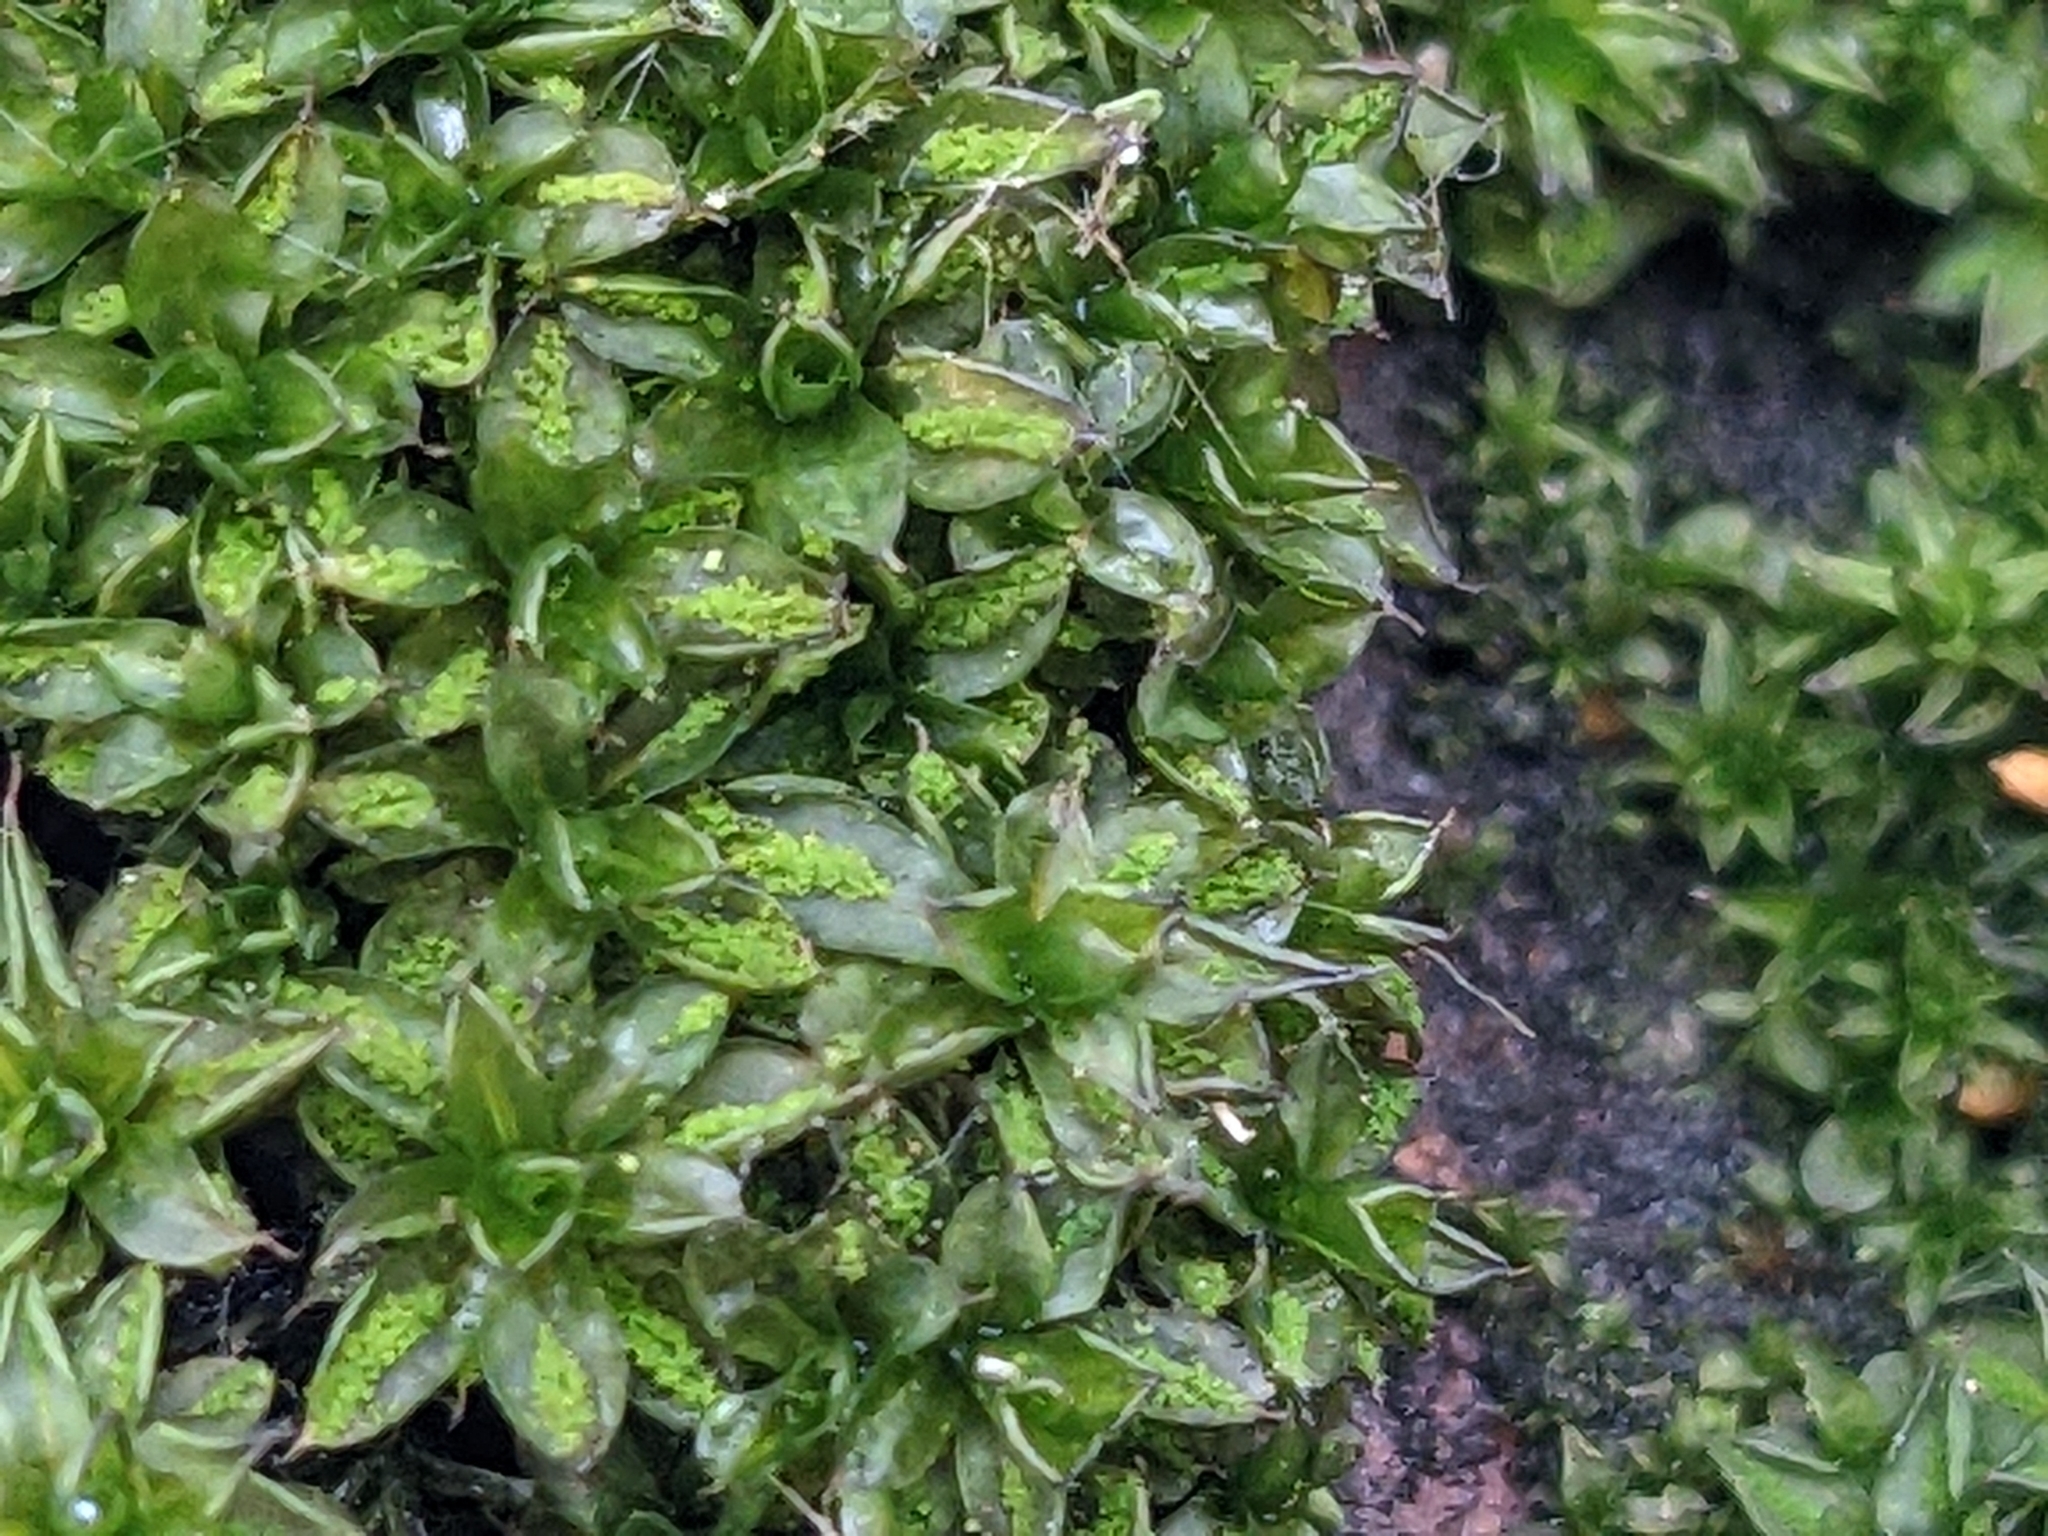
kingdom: Plantae
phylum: Bryophyta
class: Bryopsida
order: Pottiales
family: Pottiaceae
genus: Syntrichia
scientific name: Syntrichia papillosa
